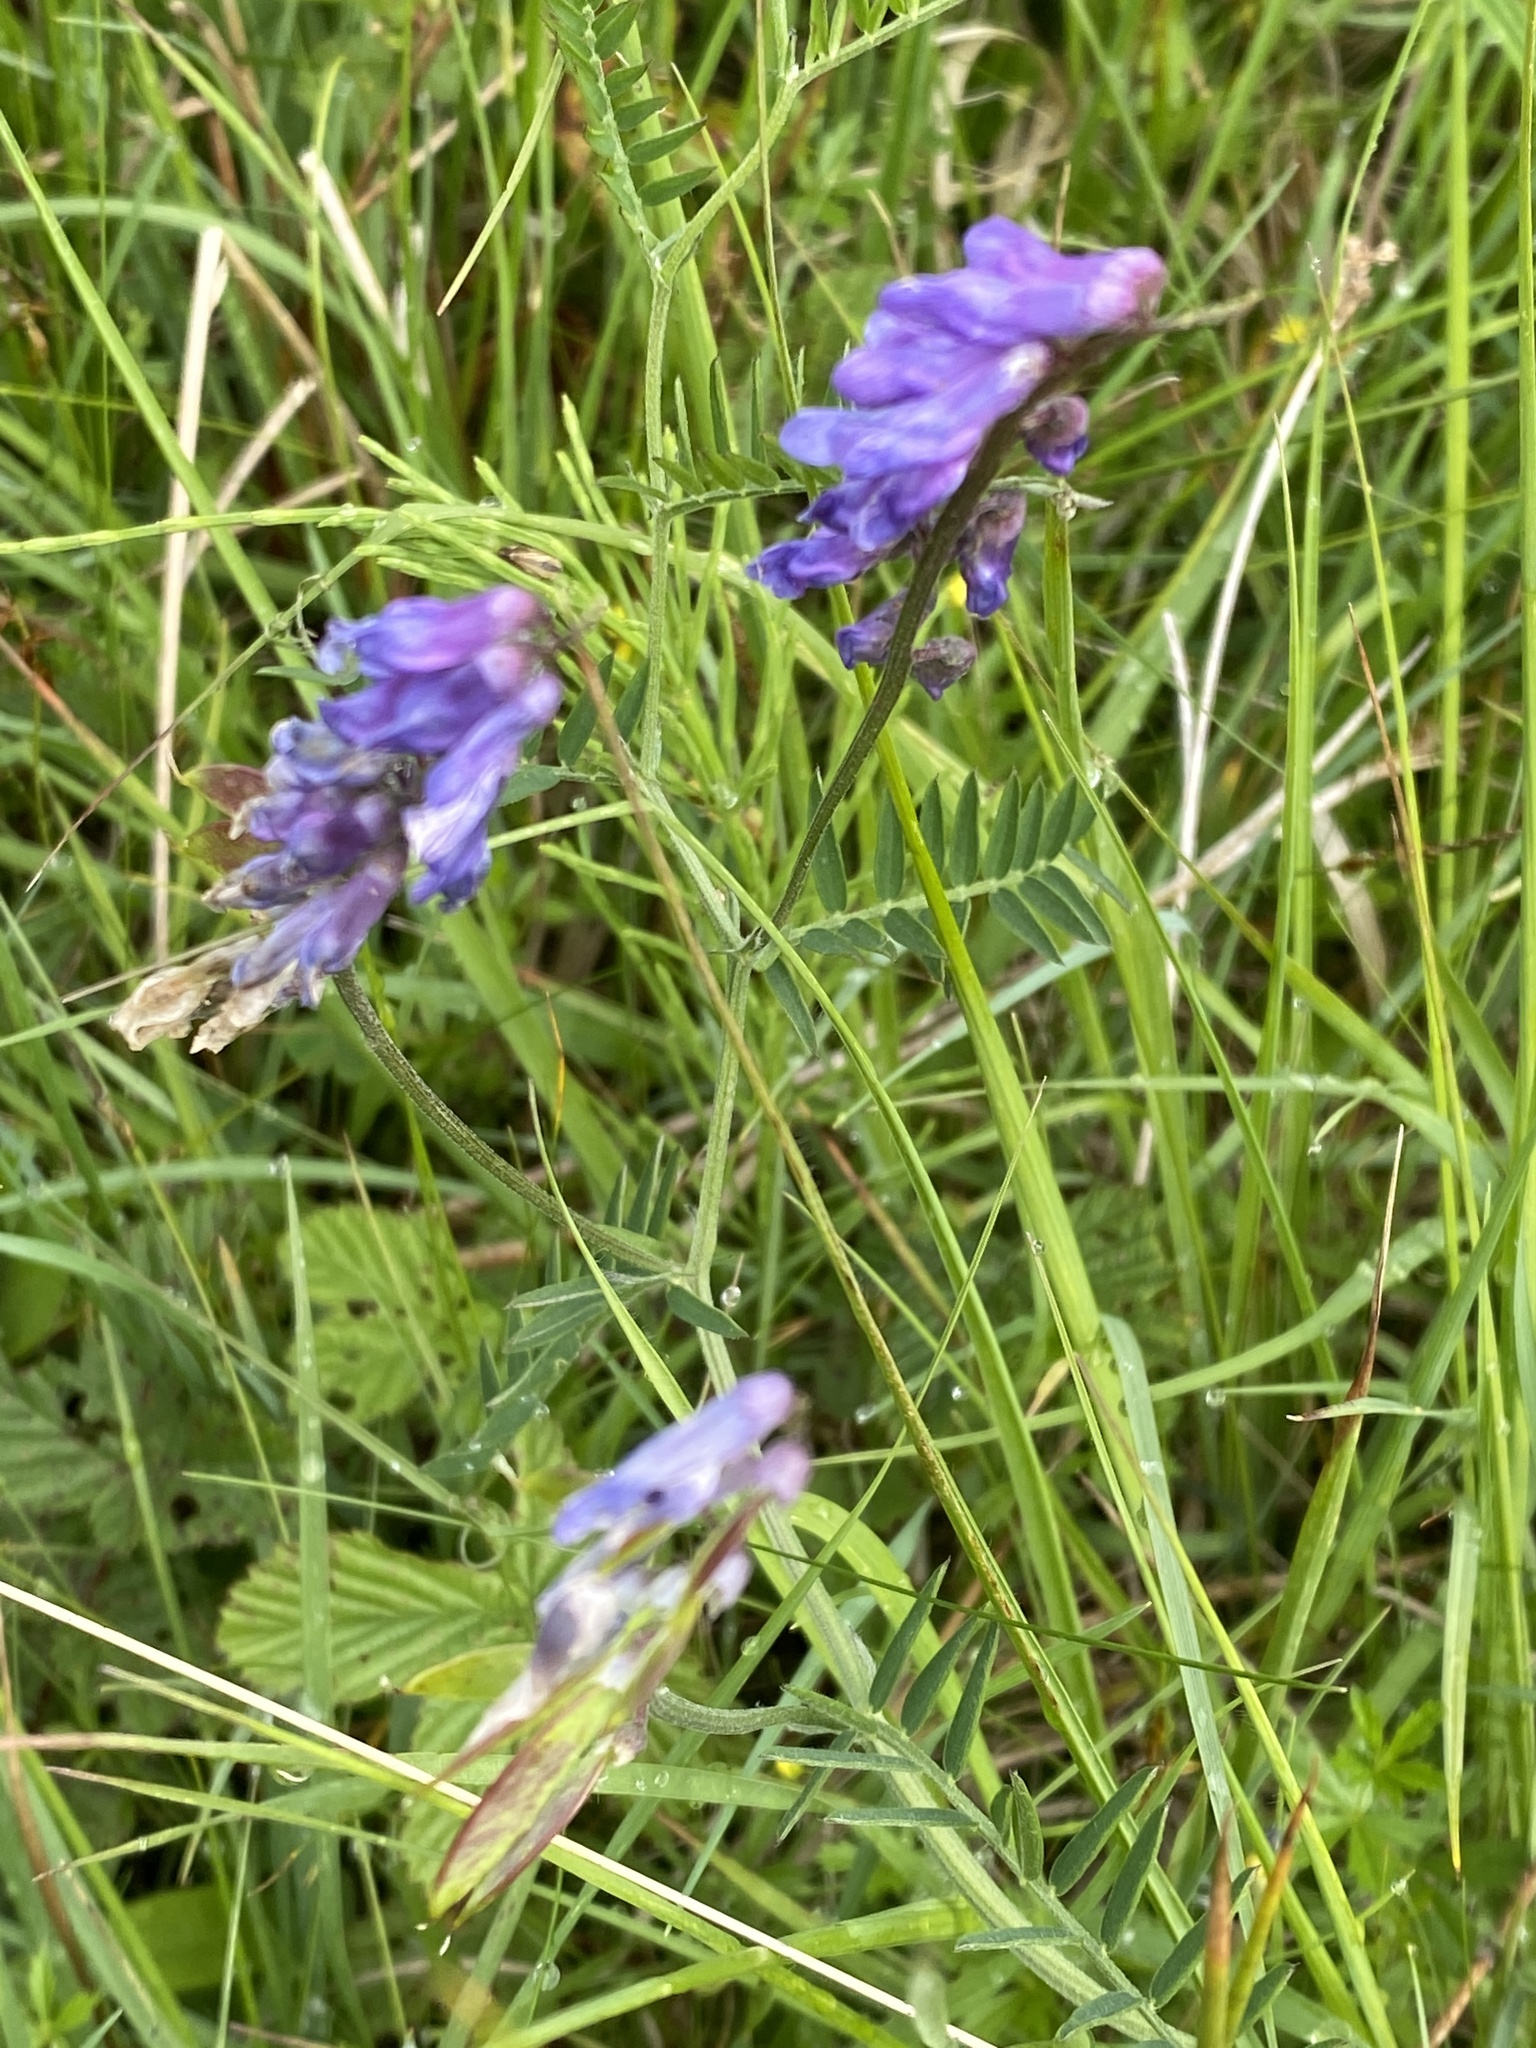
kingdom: Plantae
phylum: Tracheophyta
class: Magnoliopsida
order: Fabales
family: Fabaceae
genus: Vicia
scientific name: Vicia cracca
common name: Bird vetch
